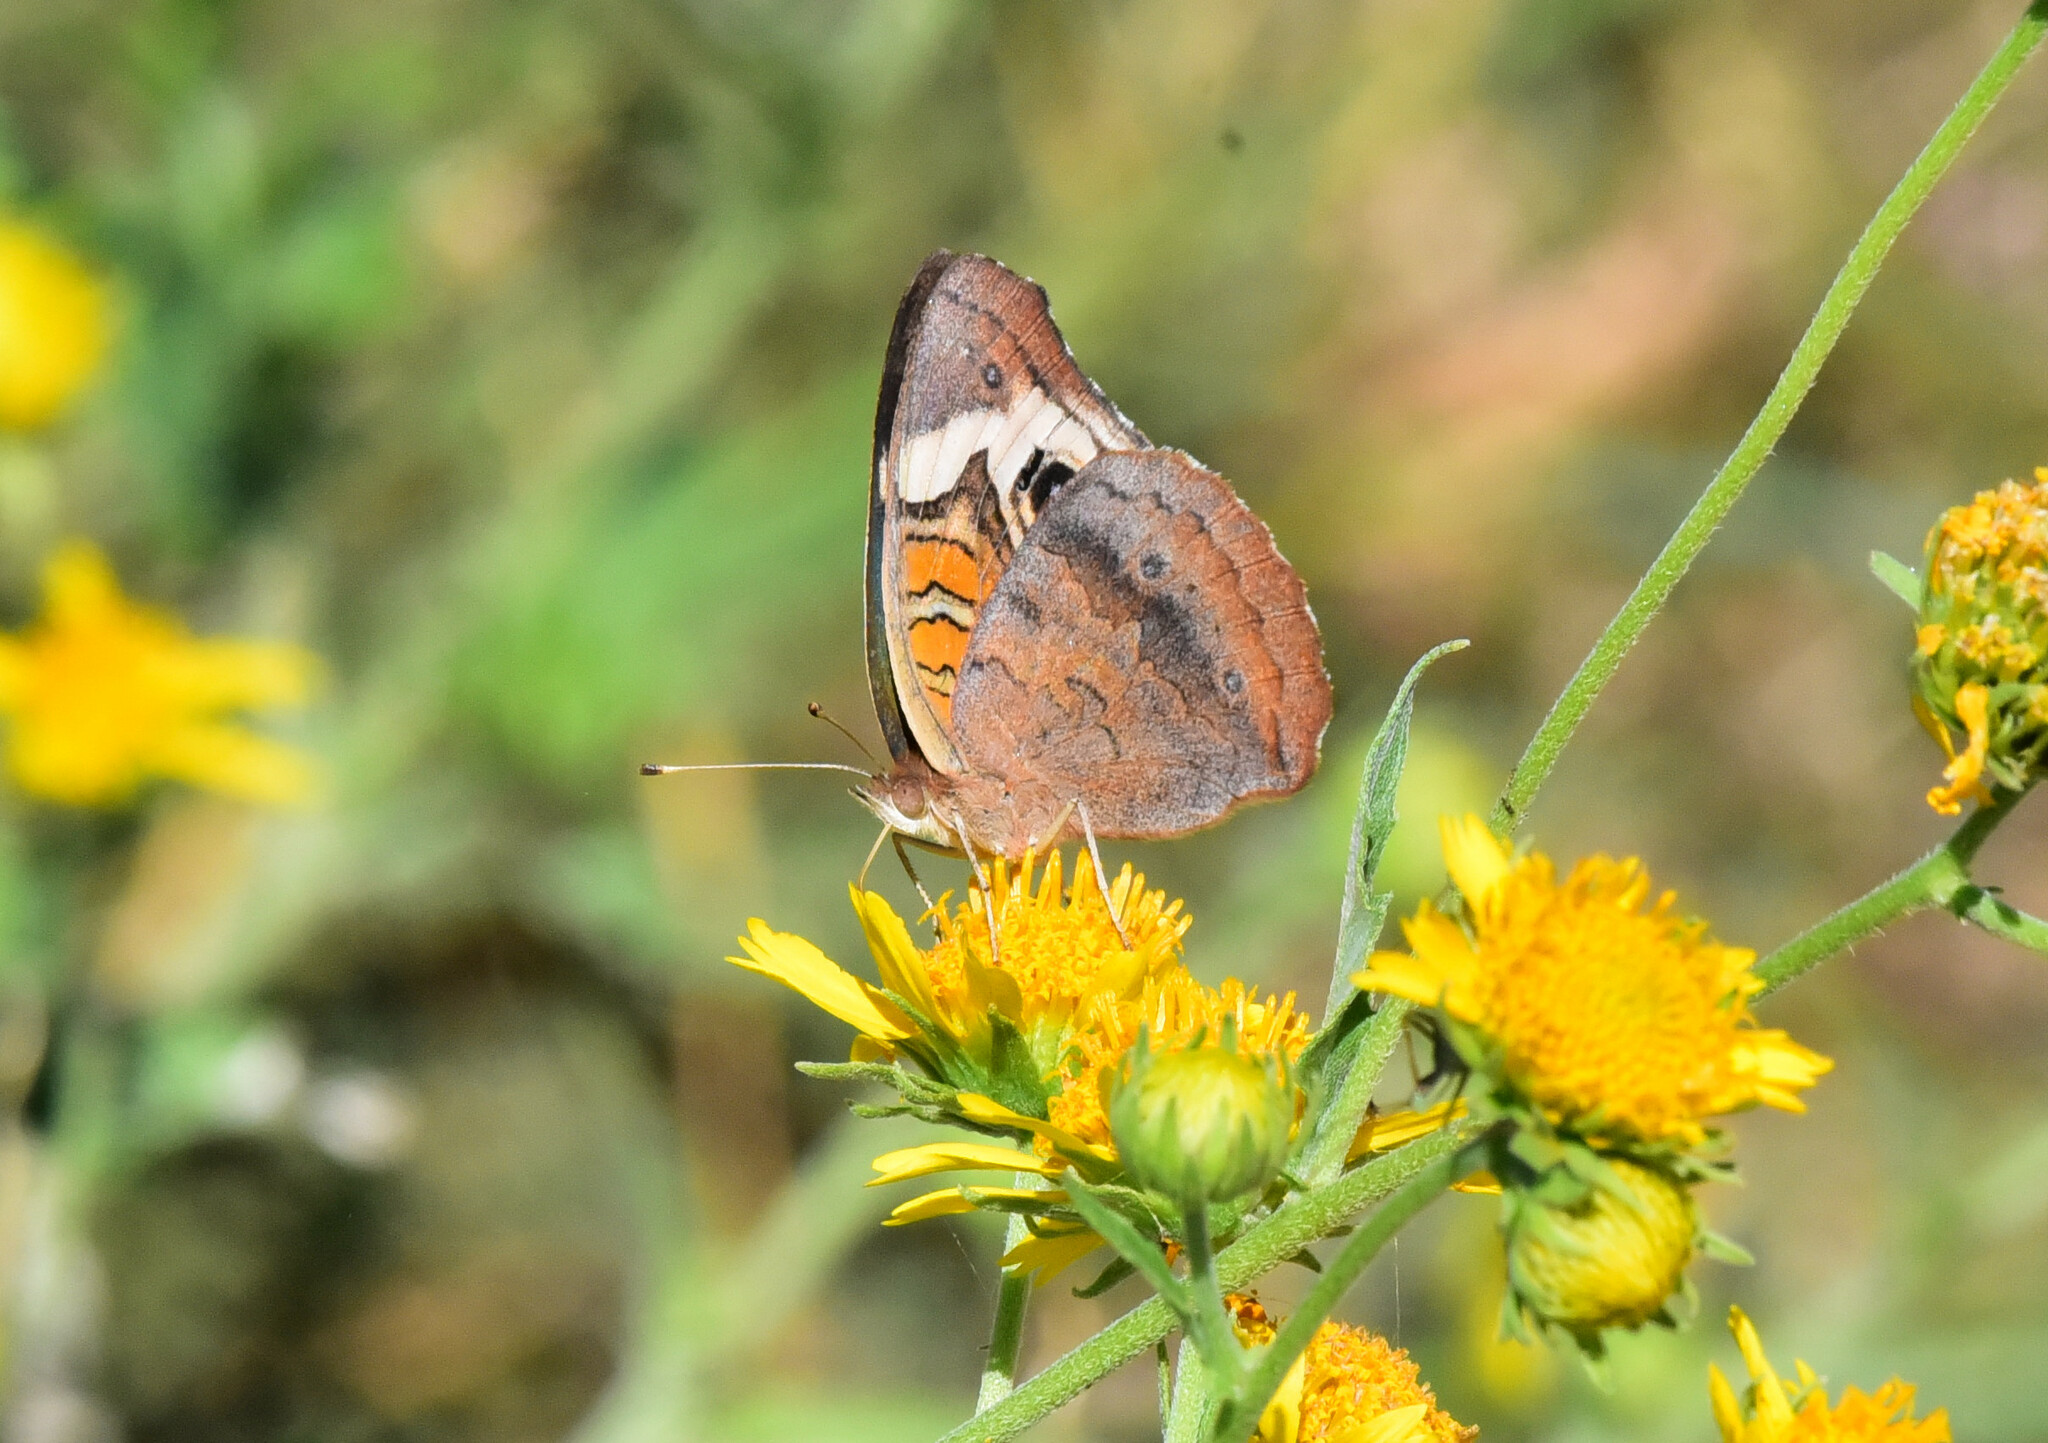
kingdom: Animalia
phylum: Arthropoda
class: Insecta
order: Lepidoptera
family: Nymphalidae
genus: Junonia
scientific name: Junonia coenia
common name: Common buckeye
